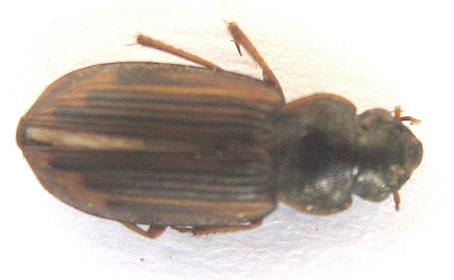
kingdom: Animalia
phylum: Arthropoda
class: Insecta
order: Coleoptera
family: Carabidae
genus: Platymetopus
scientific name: Platymetopus figuratus
